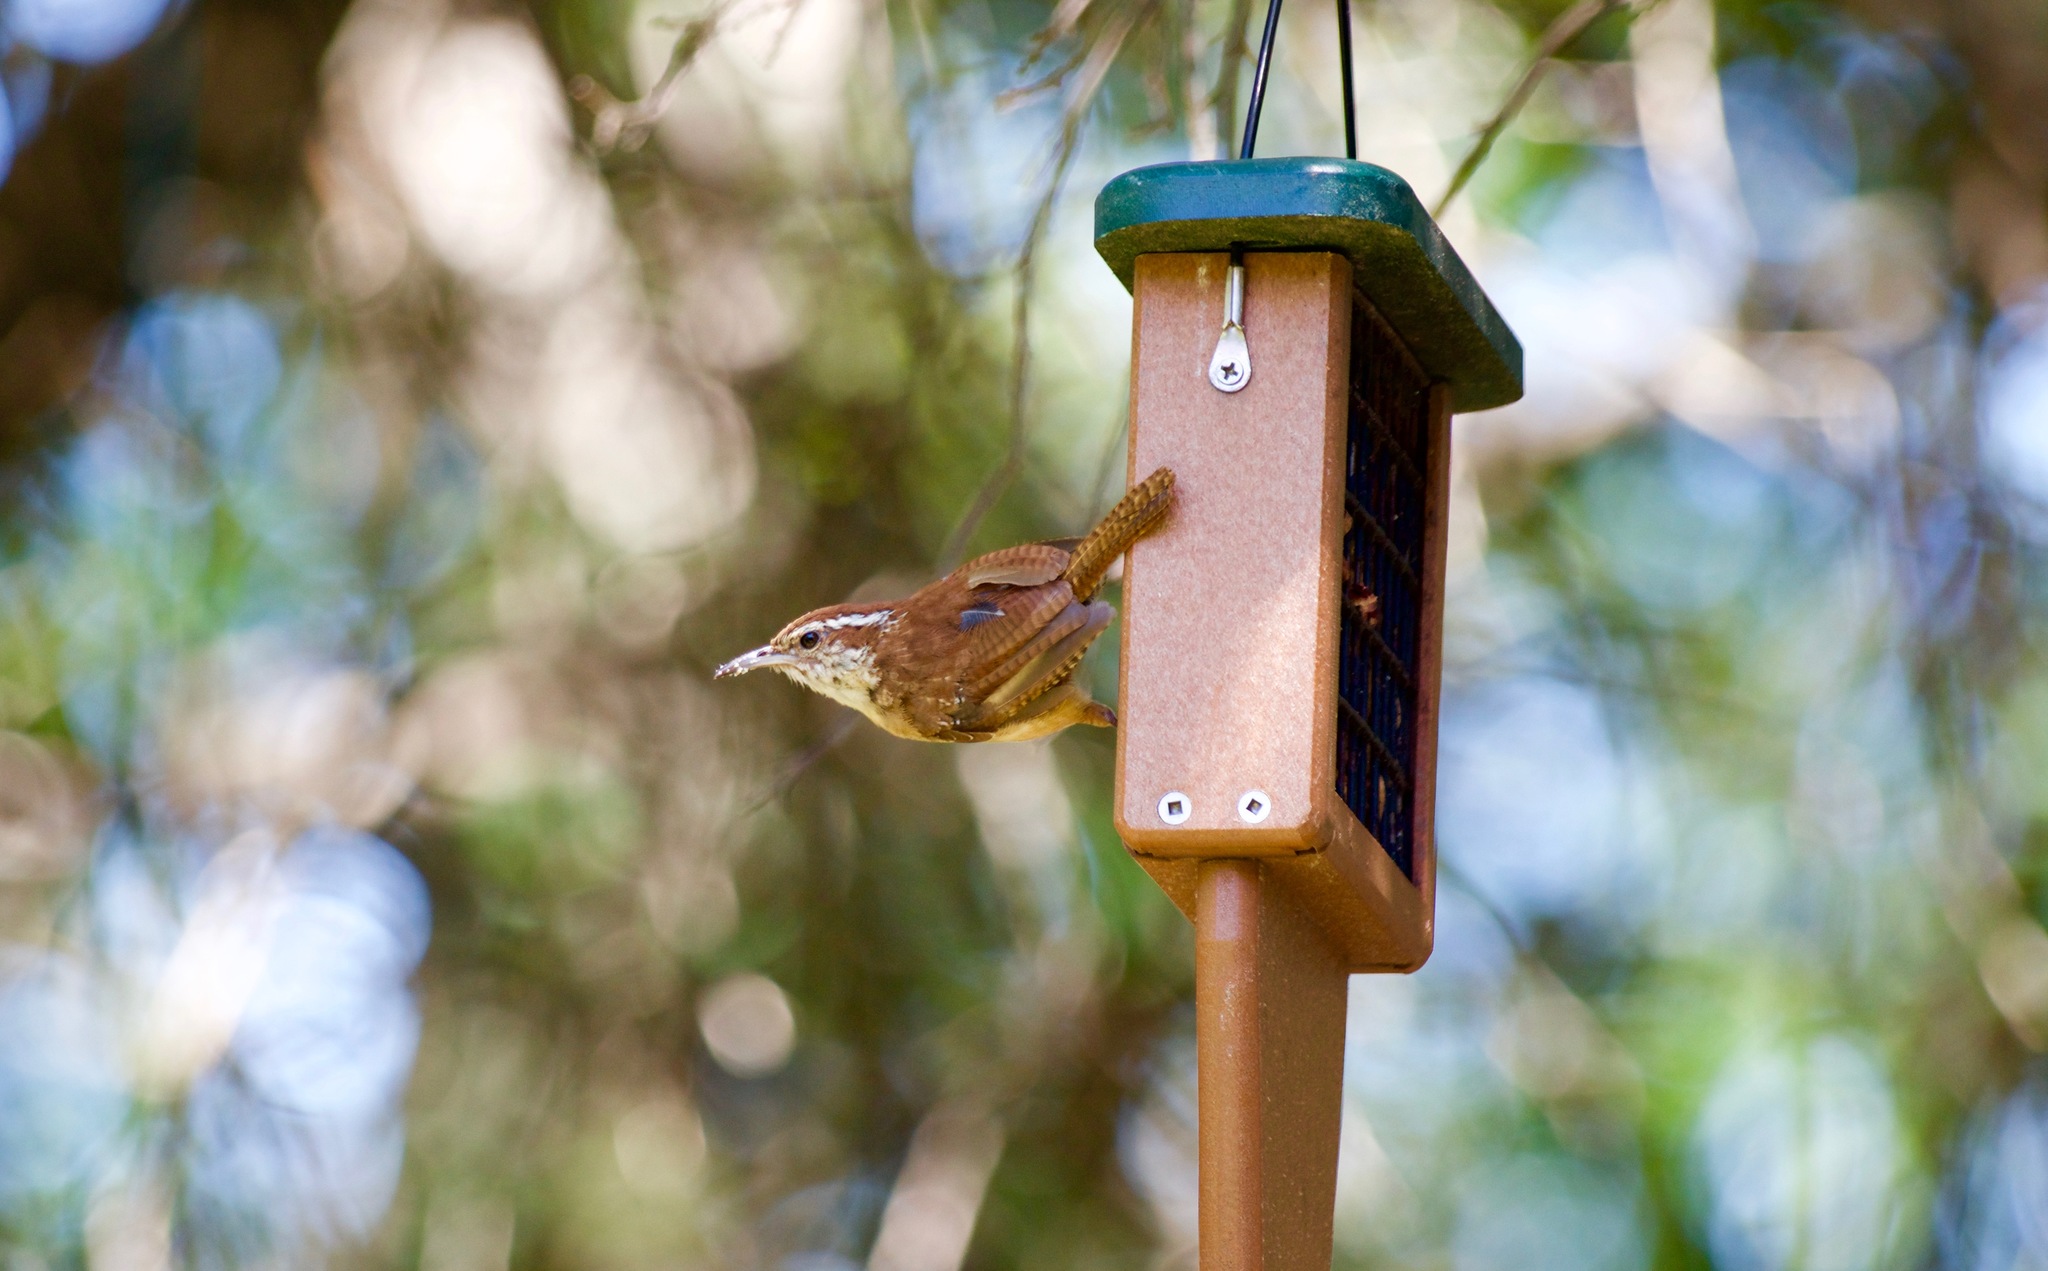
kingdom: Animalia
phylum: Chordata
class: Aves
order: Passeriformes
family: Troglodytidae
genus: Thryothorus
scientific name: Thryothorus ludovicianus
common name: Carolina wren
